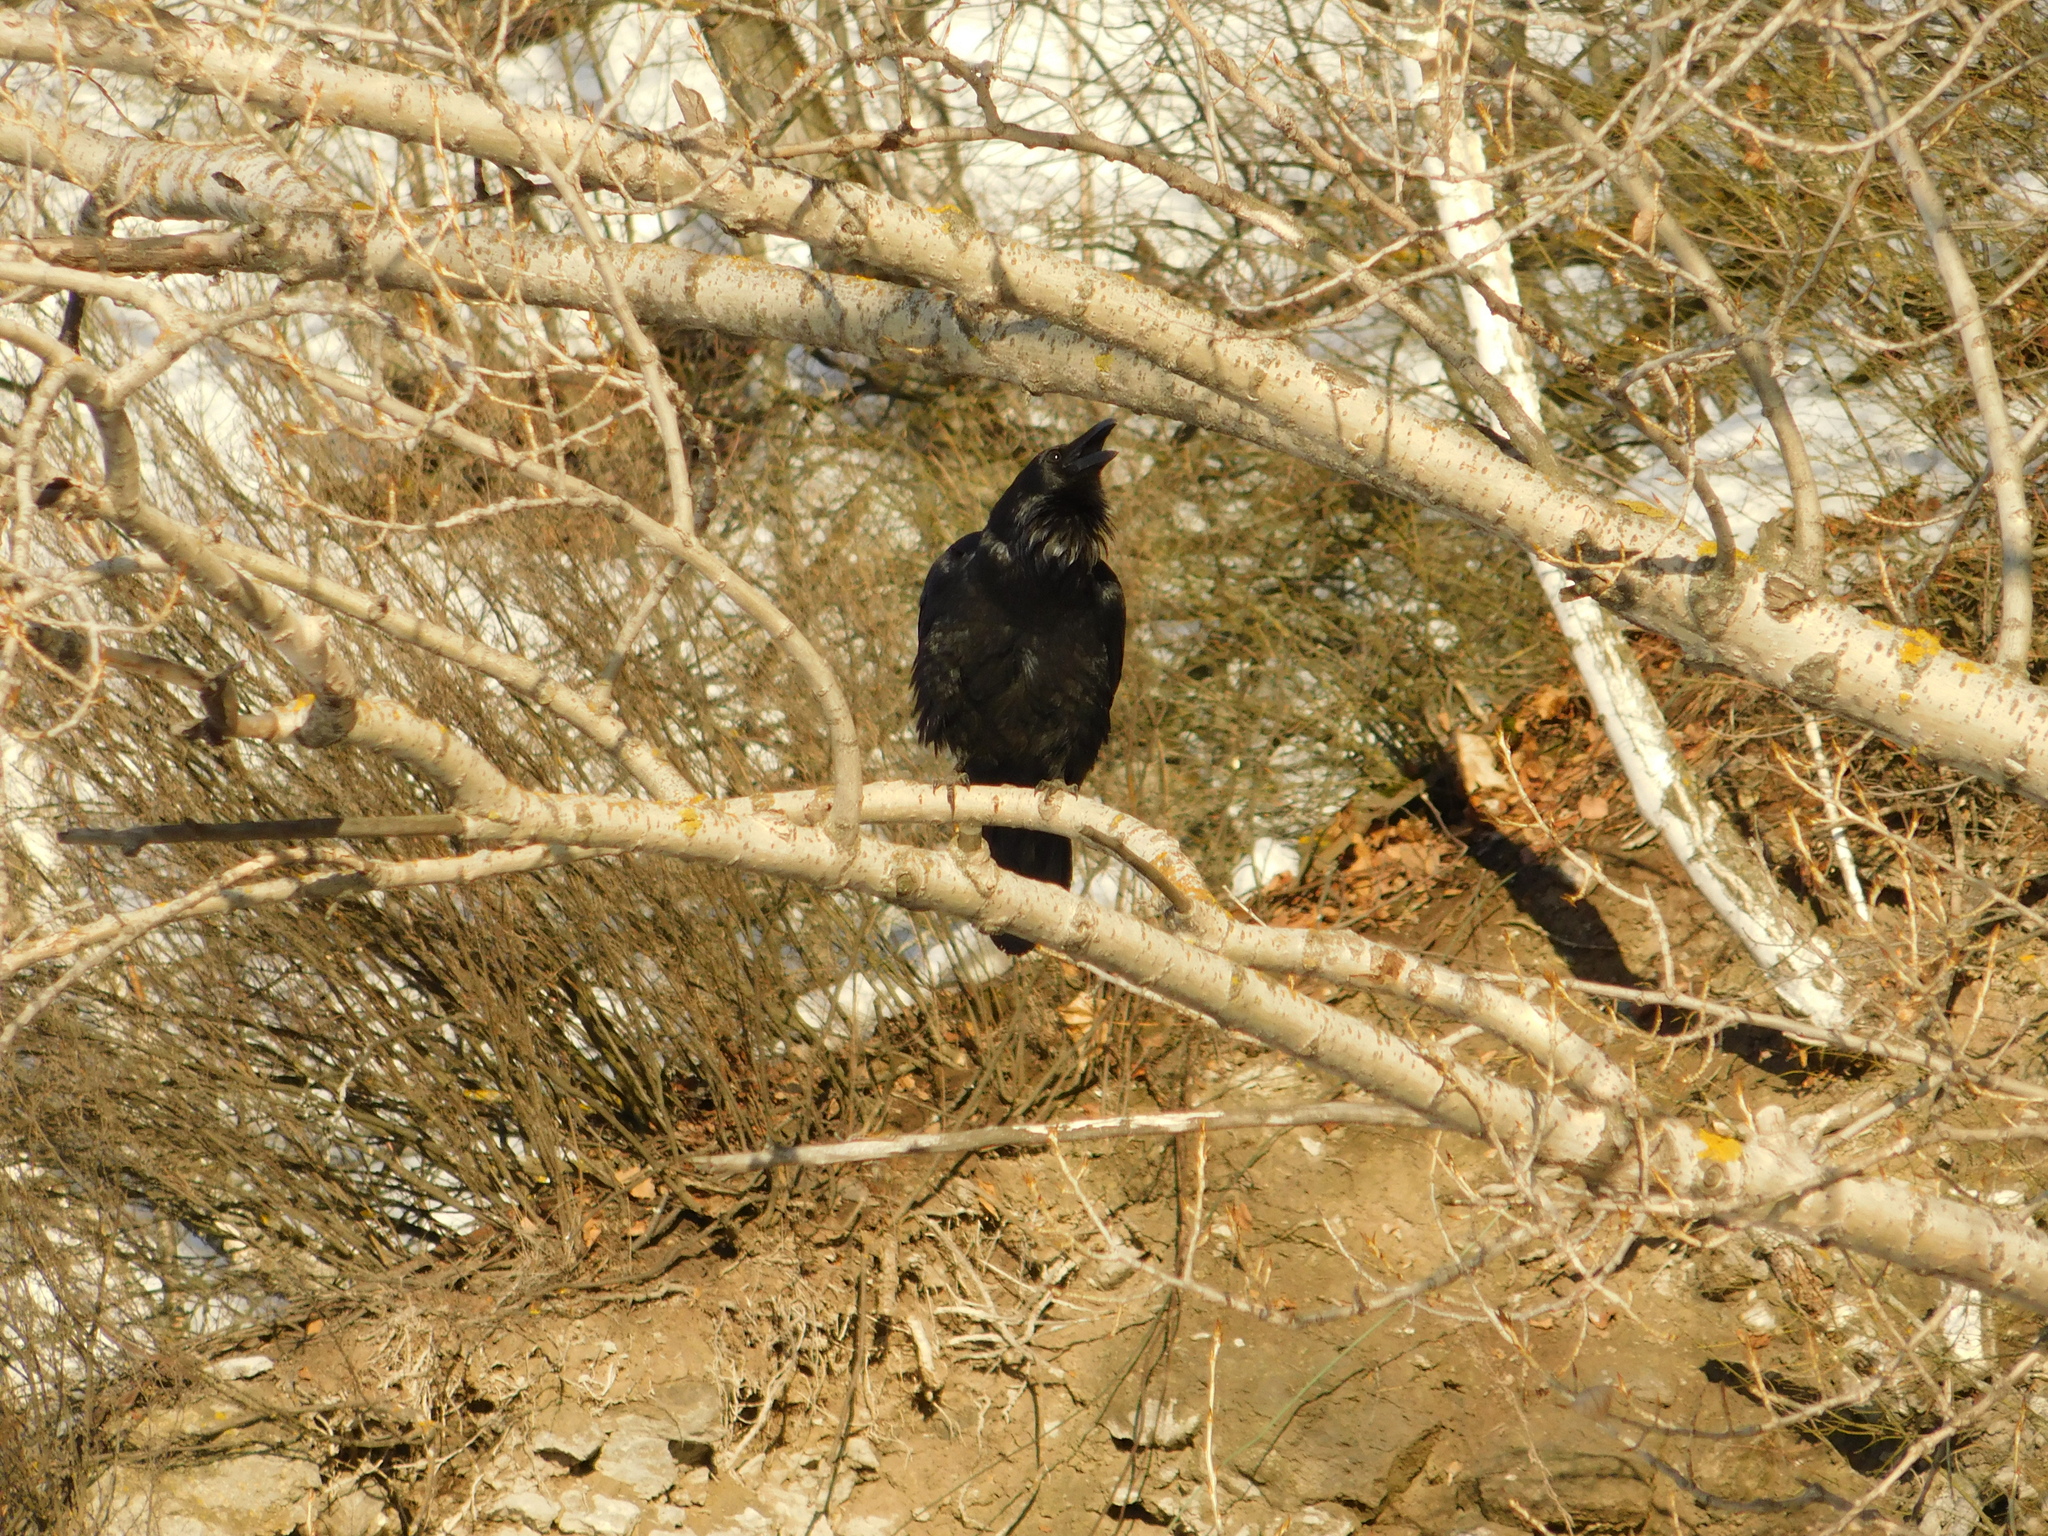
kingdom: Animalia
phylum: Chordata
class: Aves
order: Passeriformes
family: Corvidae
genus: Corvus
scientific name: Corvus corax
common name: Common raven
